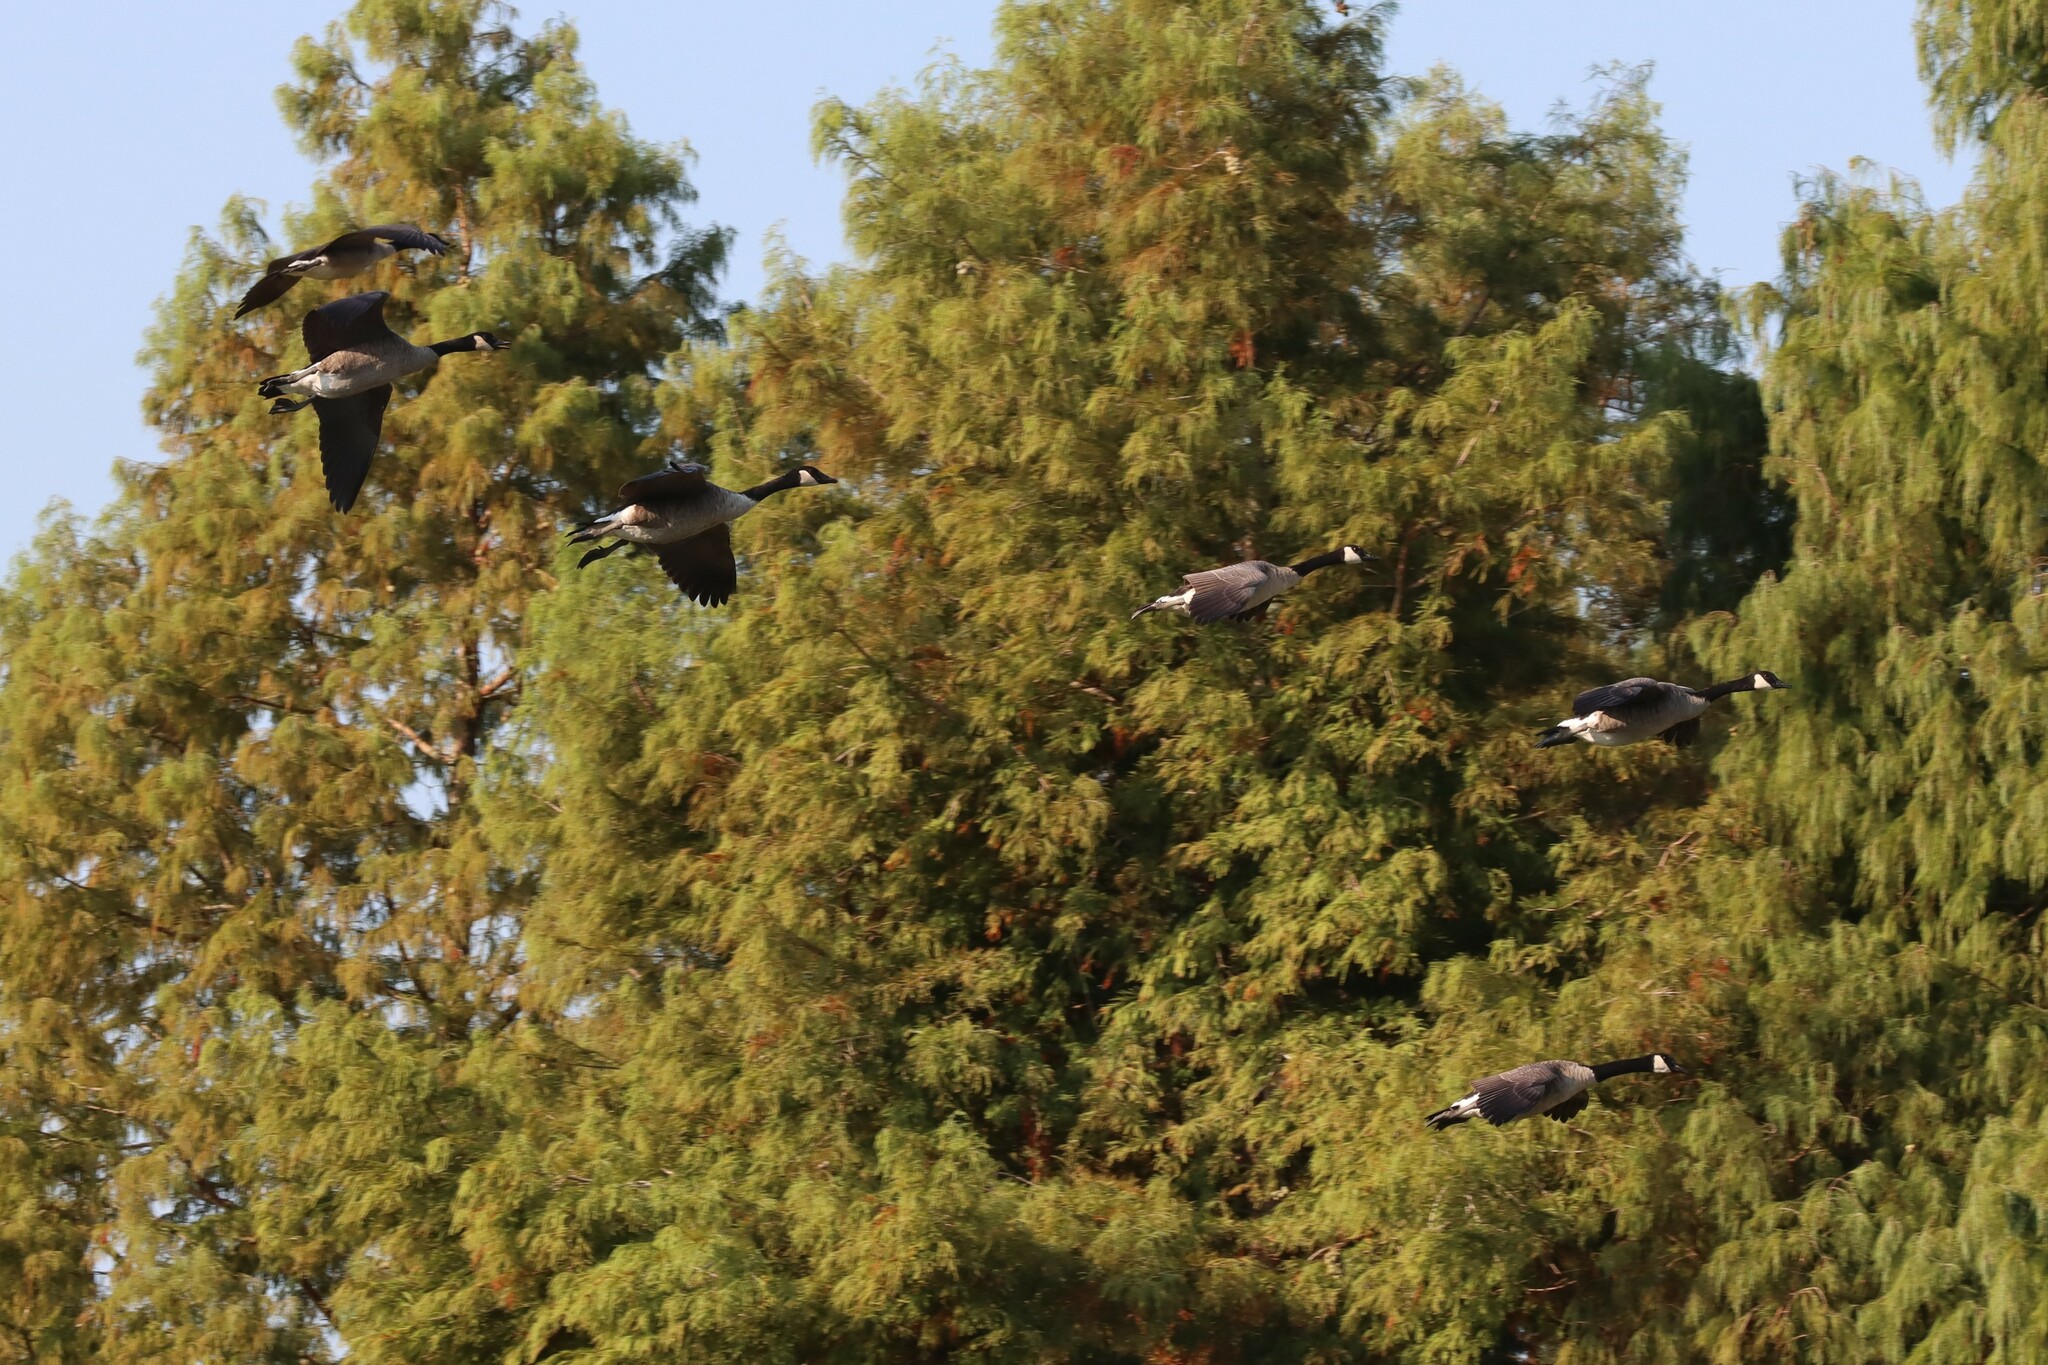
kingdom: Animalia
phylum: Chordata
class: Aves
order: Anseriformes
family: Anatidae
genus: Branta
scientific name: Branta canadensis
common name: Canada goose
